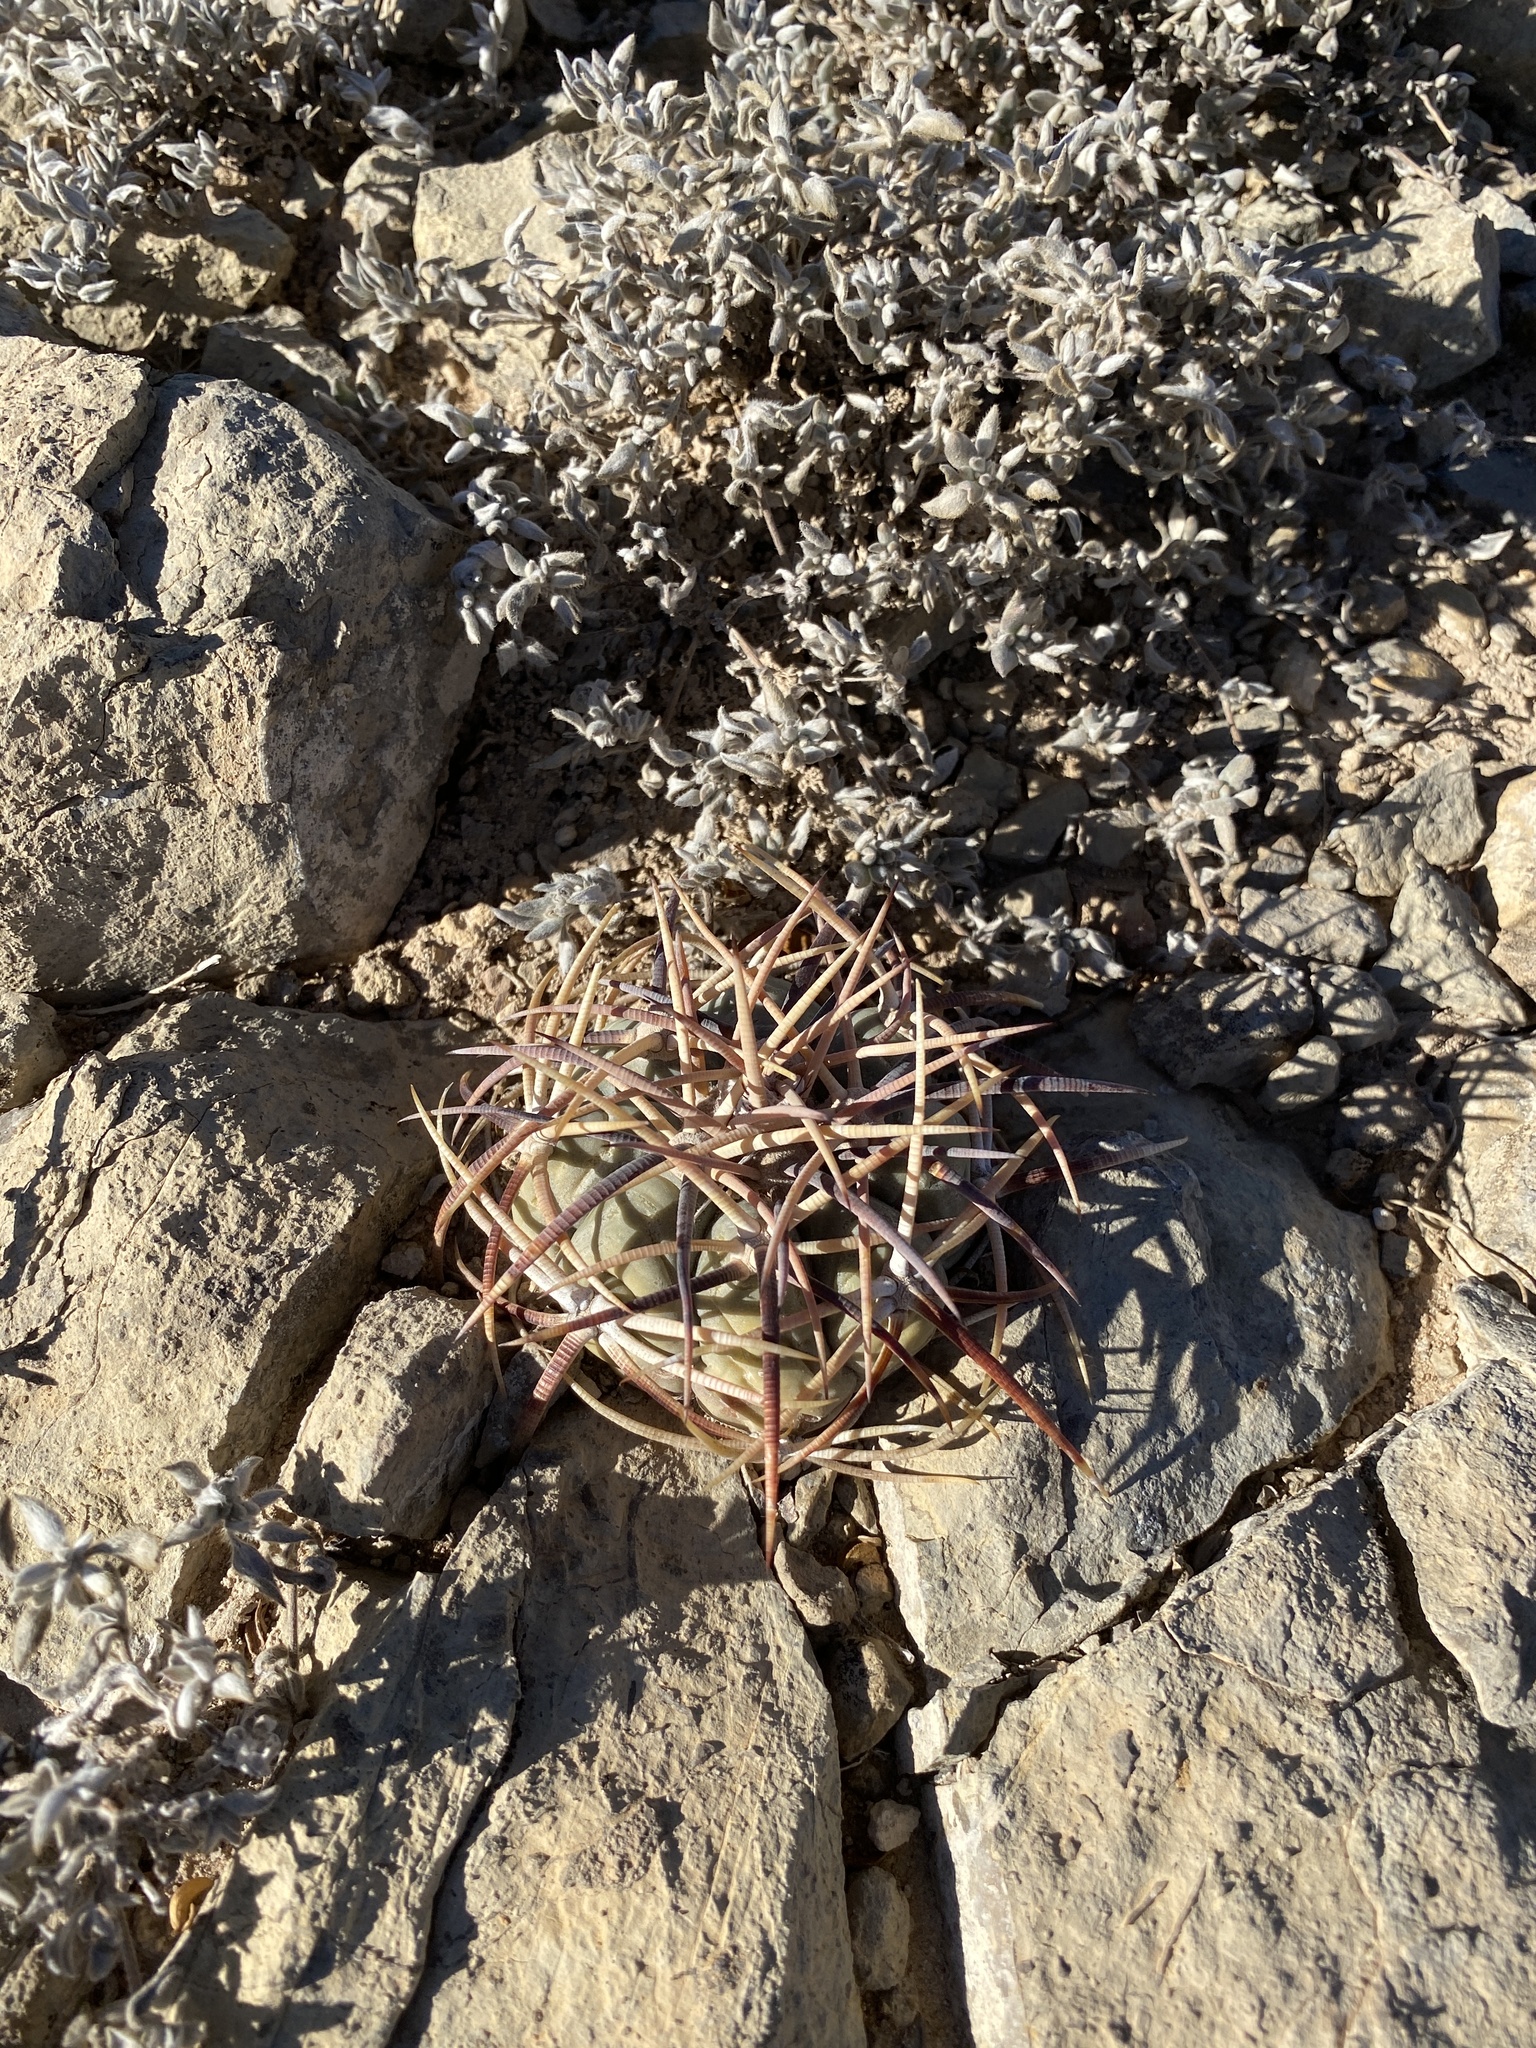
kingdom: Plantae
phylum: Tracheophyta
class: Magnoliopsida
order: Caryophyllales
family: Cactaceae
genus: Echinocactus
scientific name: Echinocactus horizonthalonius
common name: Devilshead
